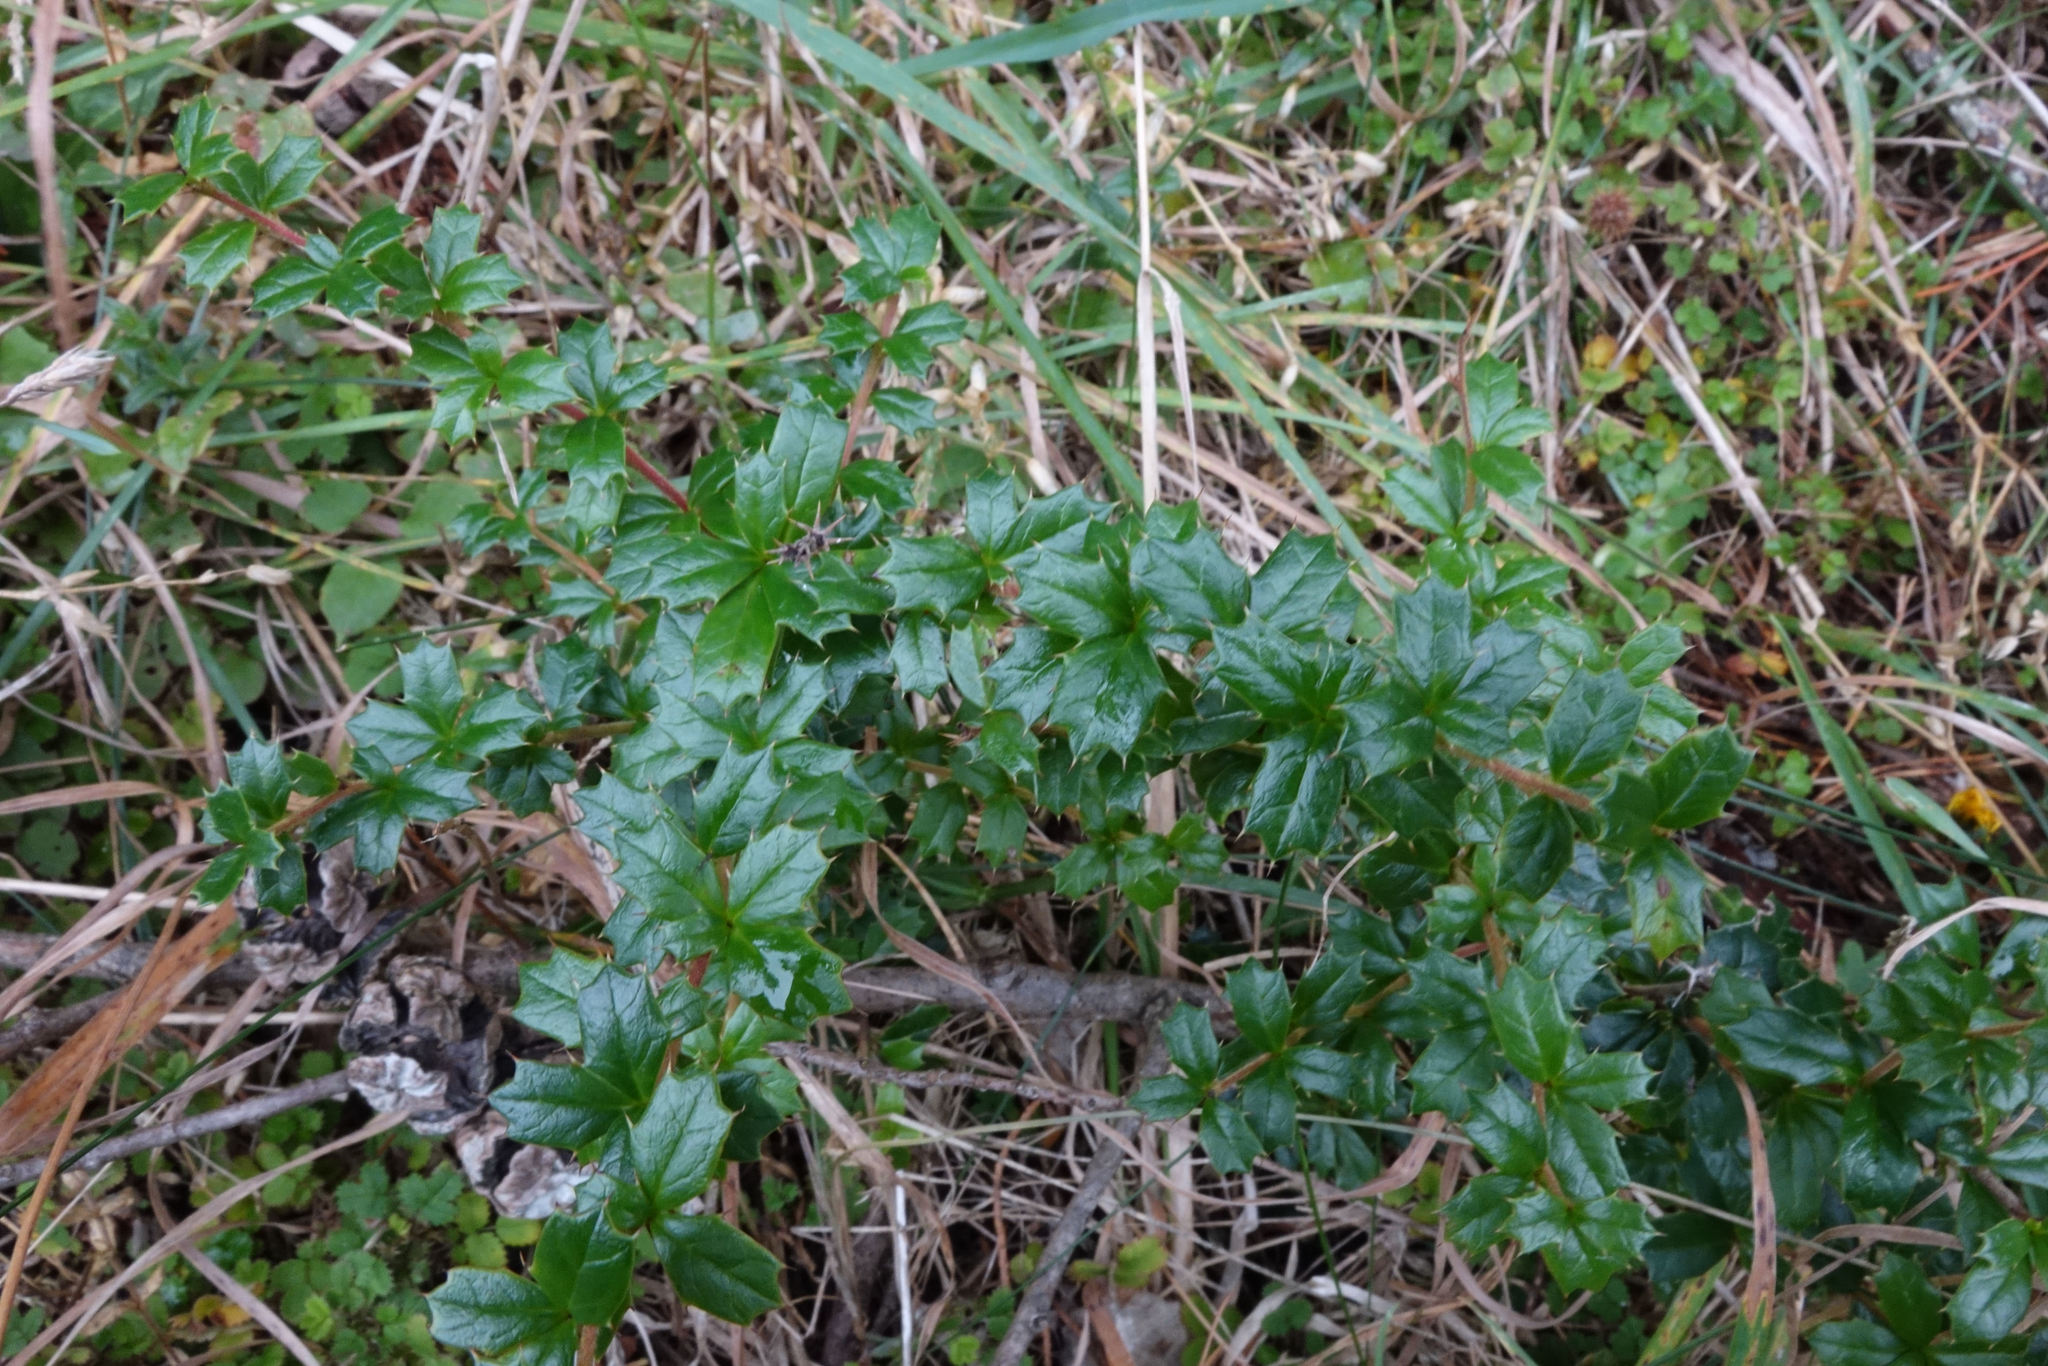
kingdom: Plantae
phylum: Tracheophyta
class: Magnoliopsida
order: Ranunculales
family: Berberidaceae
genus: Berberis
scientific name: Berberis darwinii
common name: Darwin's barberry
